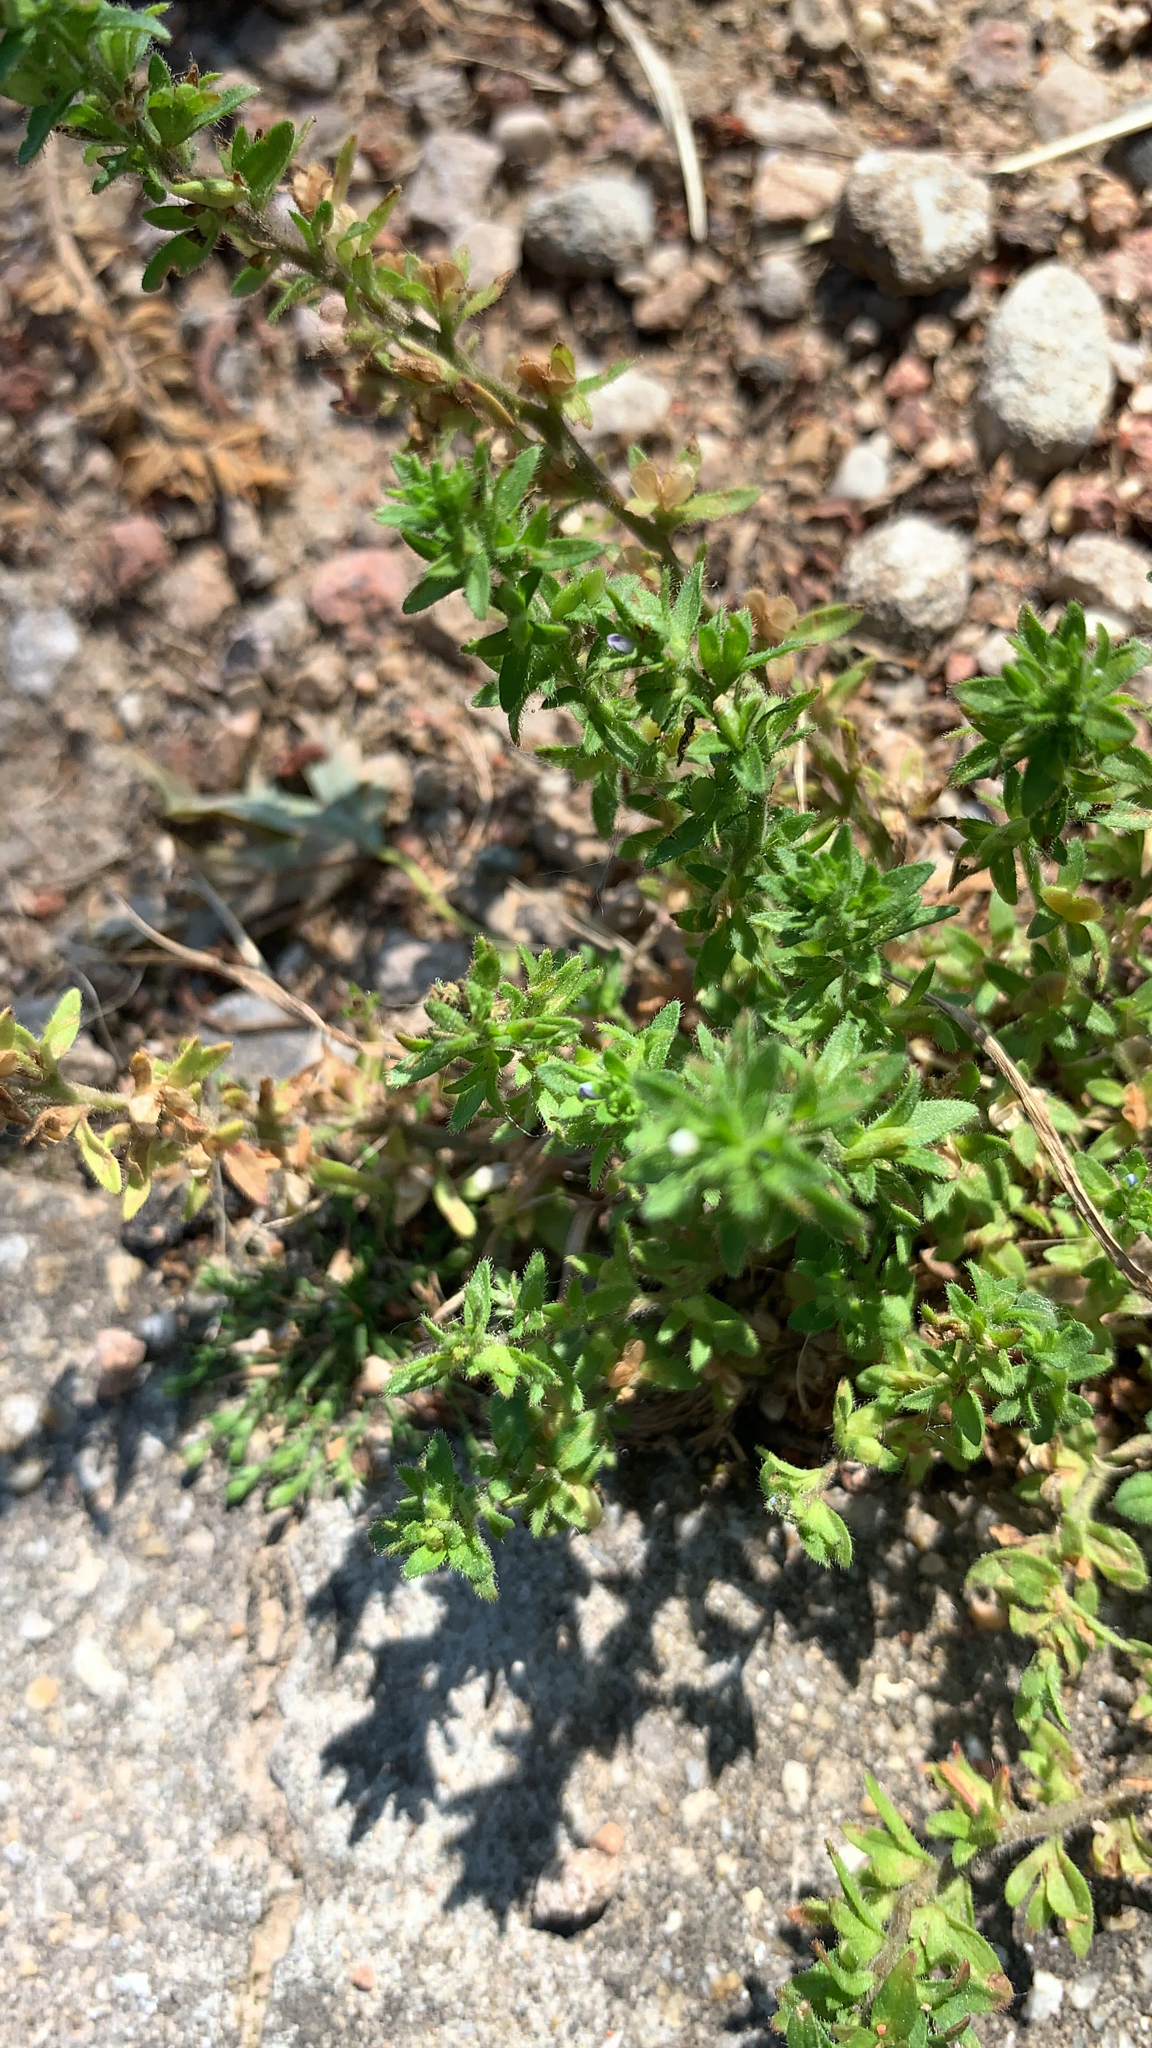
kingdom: Plantae
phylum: Tracheophyta
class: Magnoliopsida
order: Lamiales
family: Plantaginaceae
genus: Veronica
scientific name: Veronica arvensis
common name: Corn speedwell
